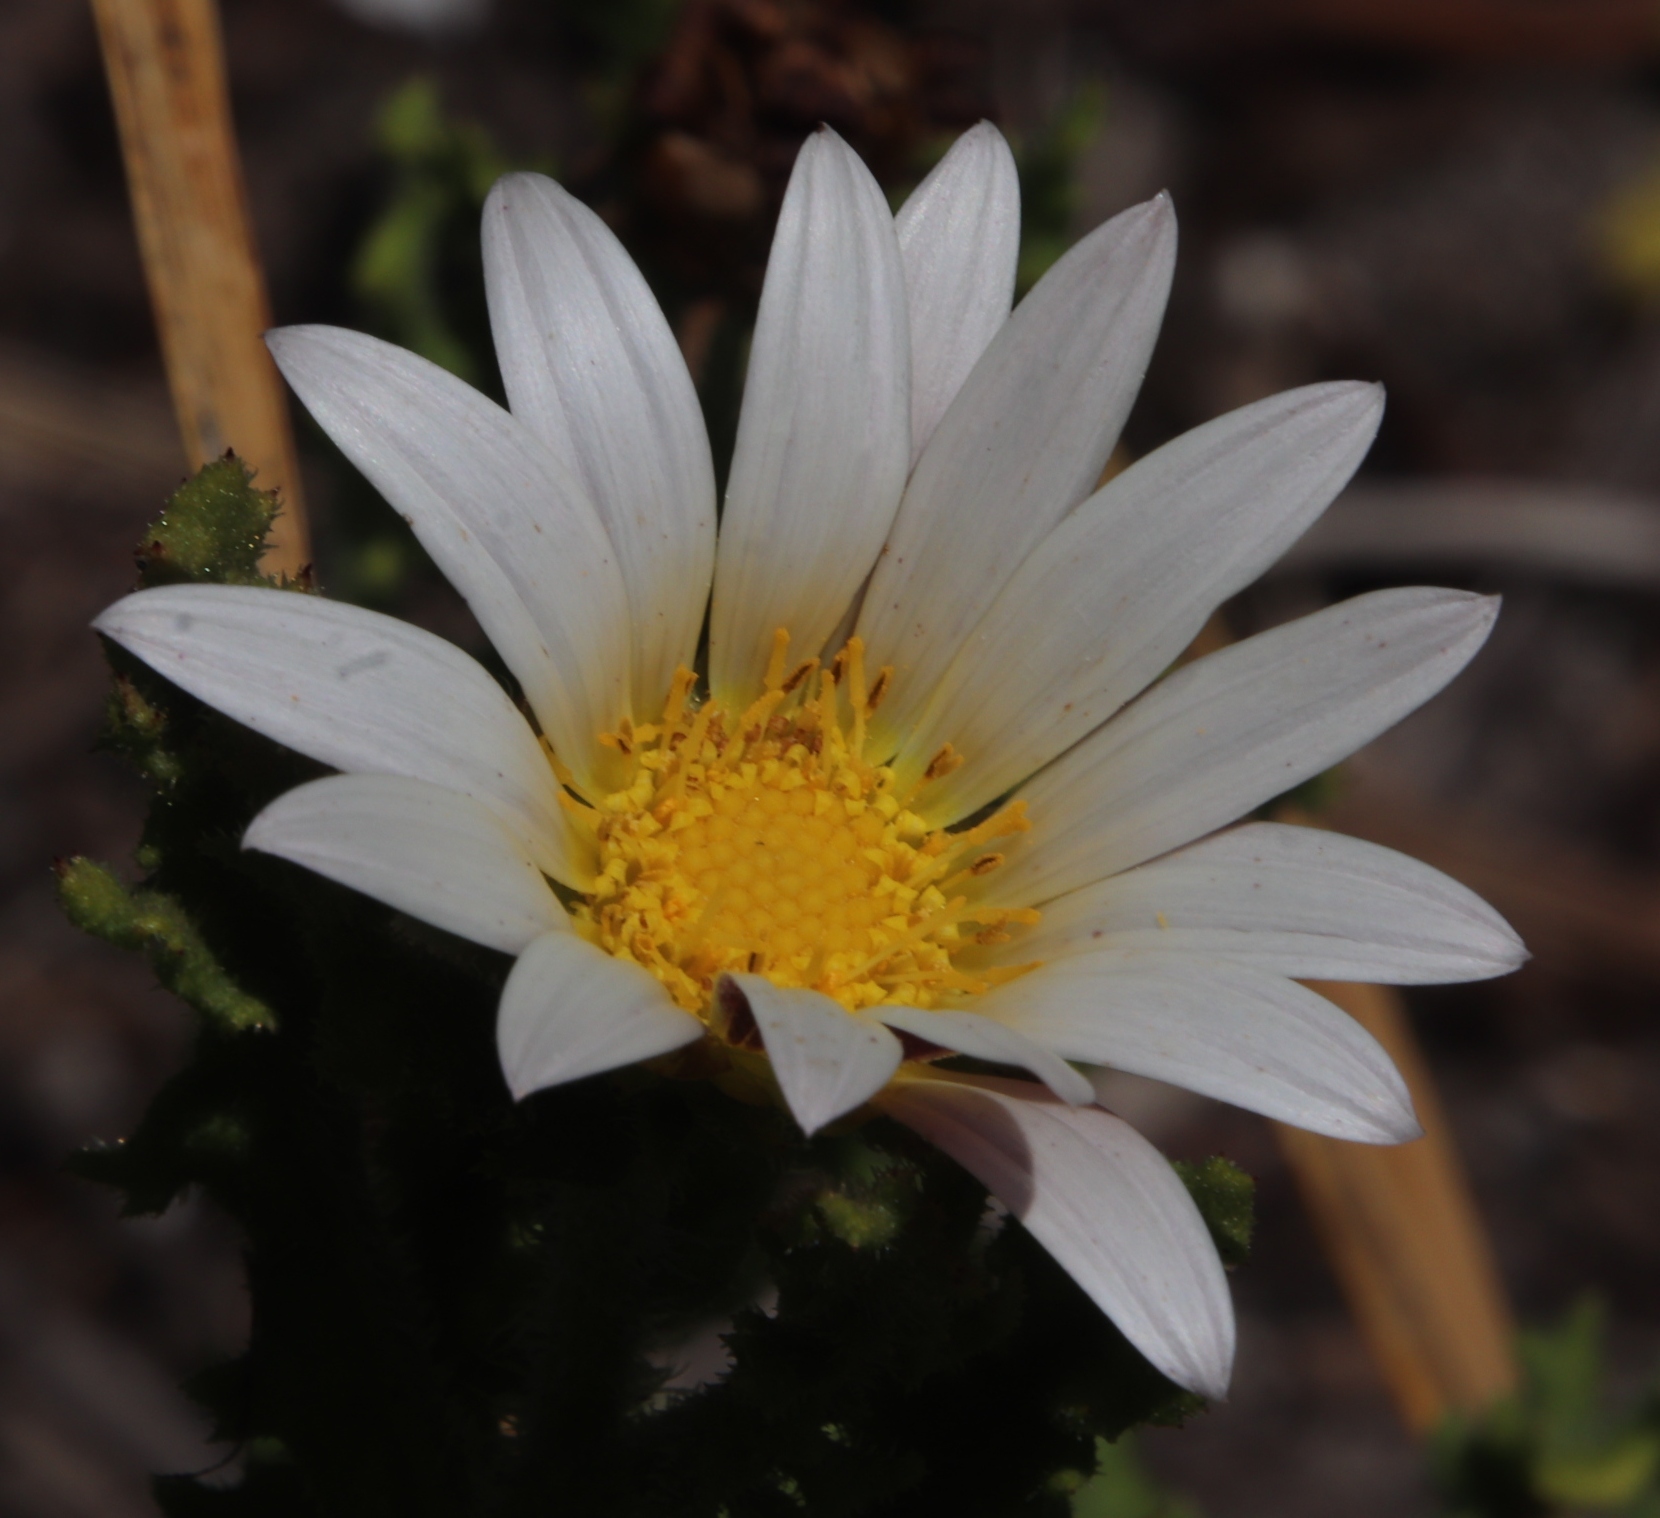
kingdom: Plantae
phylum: Tracheophyta
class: Magnoliopsida
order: Asterales
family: Asteraceae
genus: Arctotis
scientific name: Arctotis aspera
